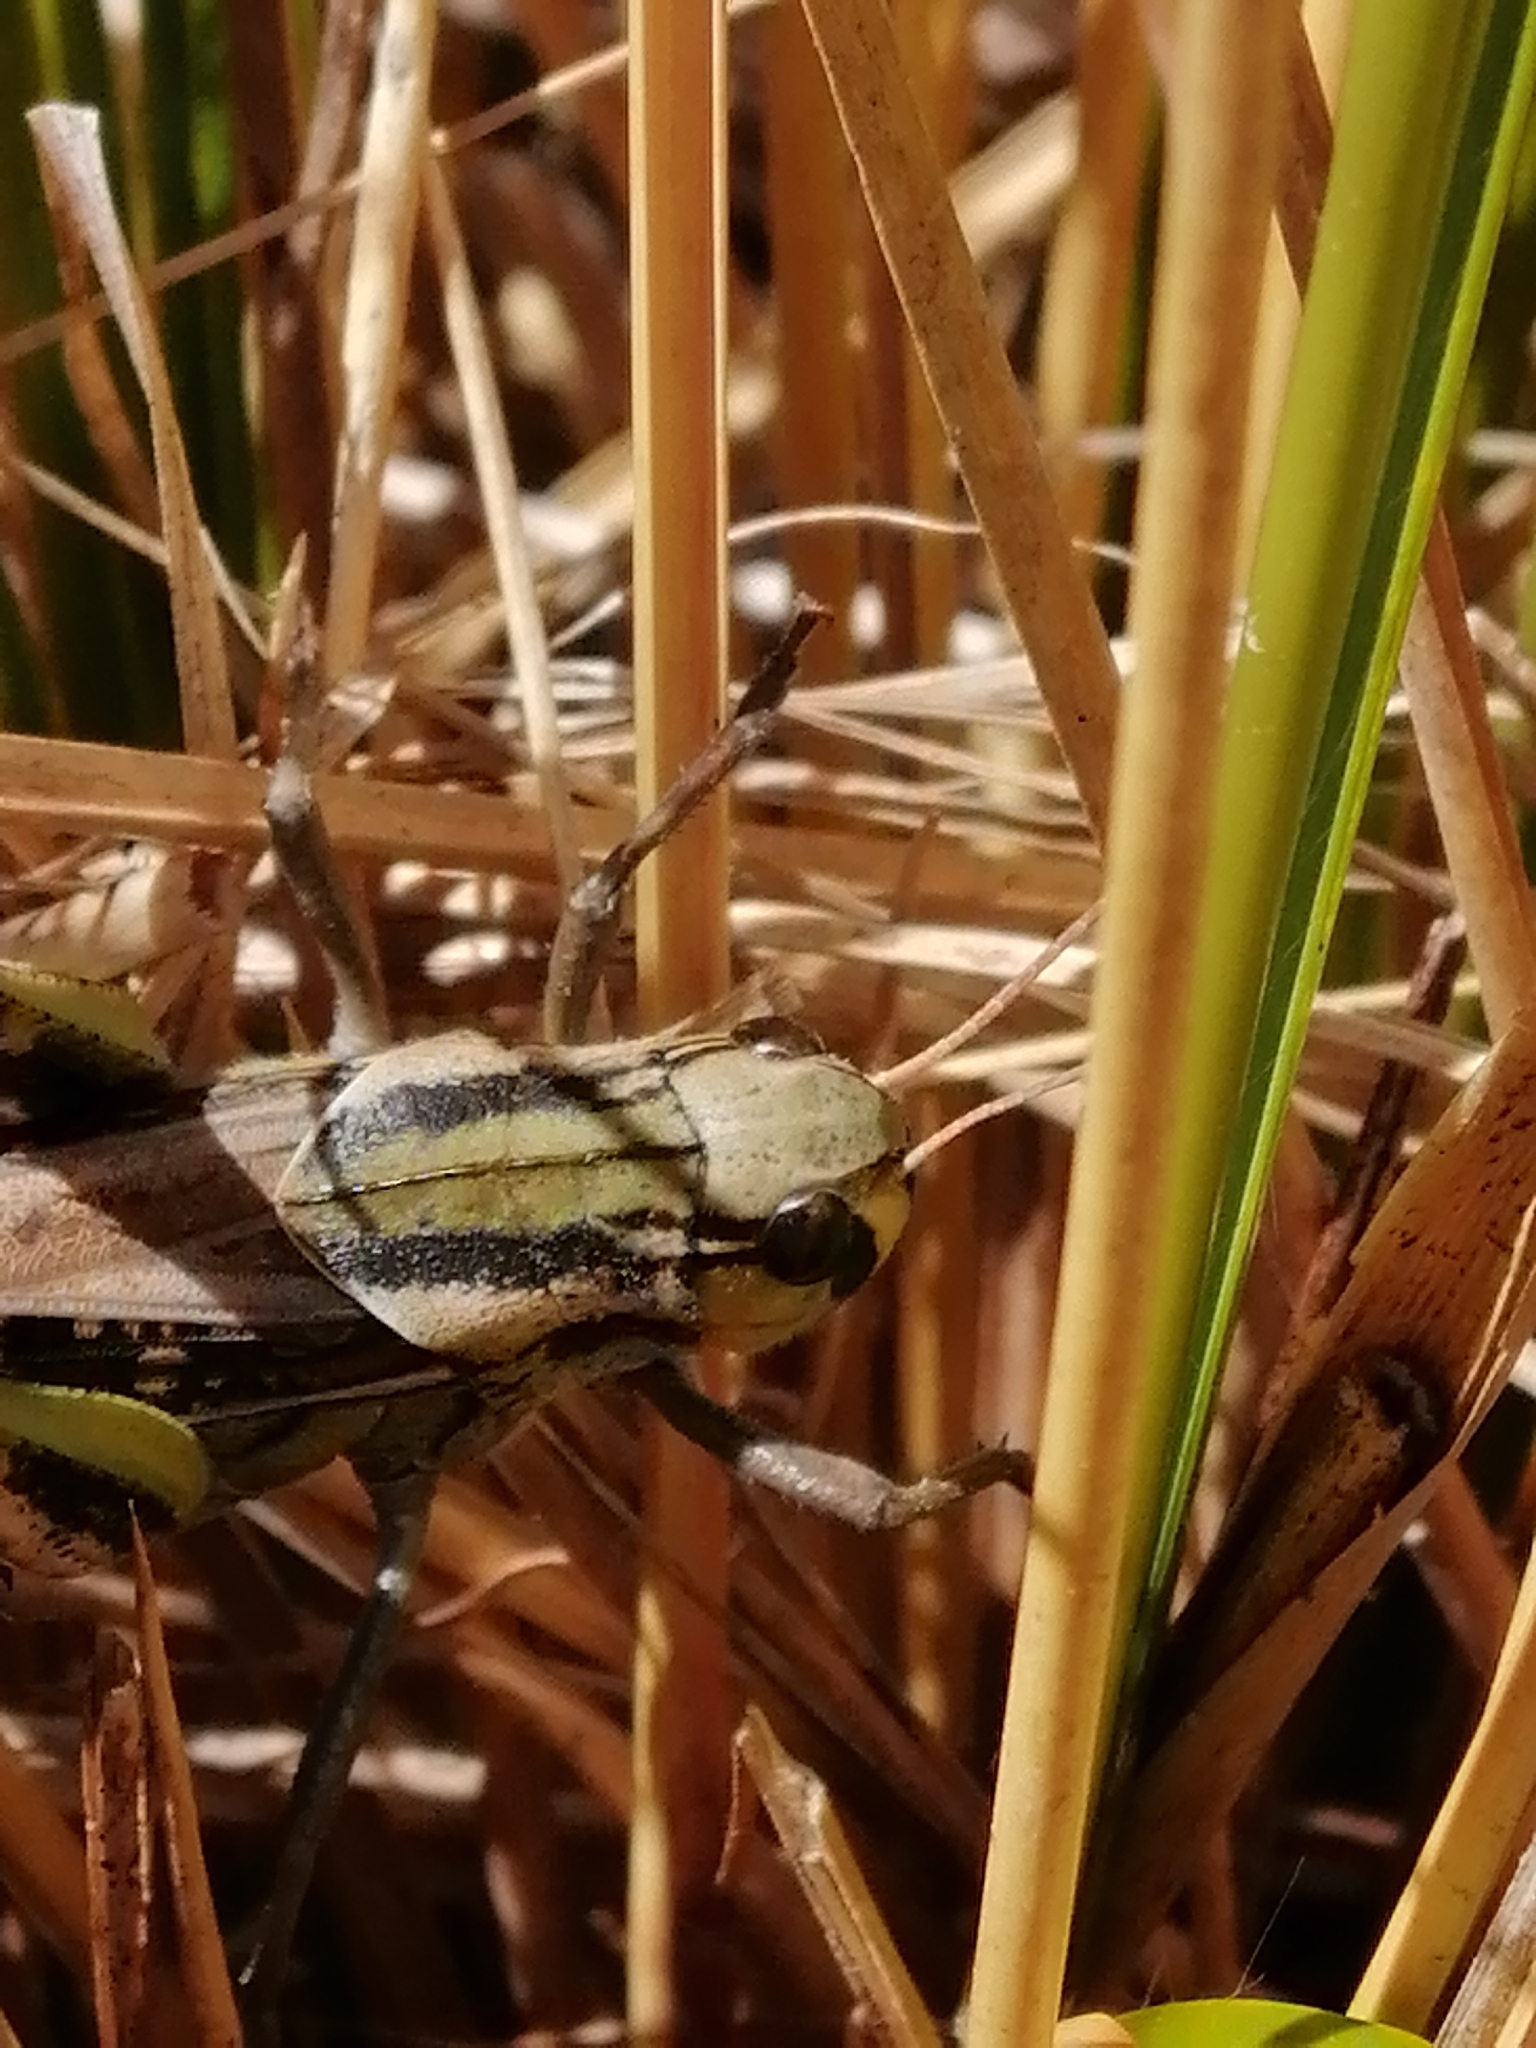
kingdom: Animalia
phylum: Arthropoda
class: Insecta
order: Orthoptera
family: Acrididae
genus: Locusta
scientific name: Locusta migratoria
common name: Migratory locust
